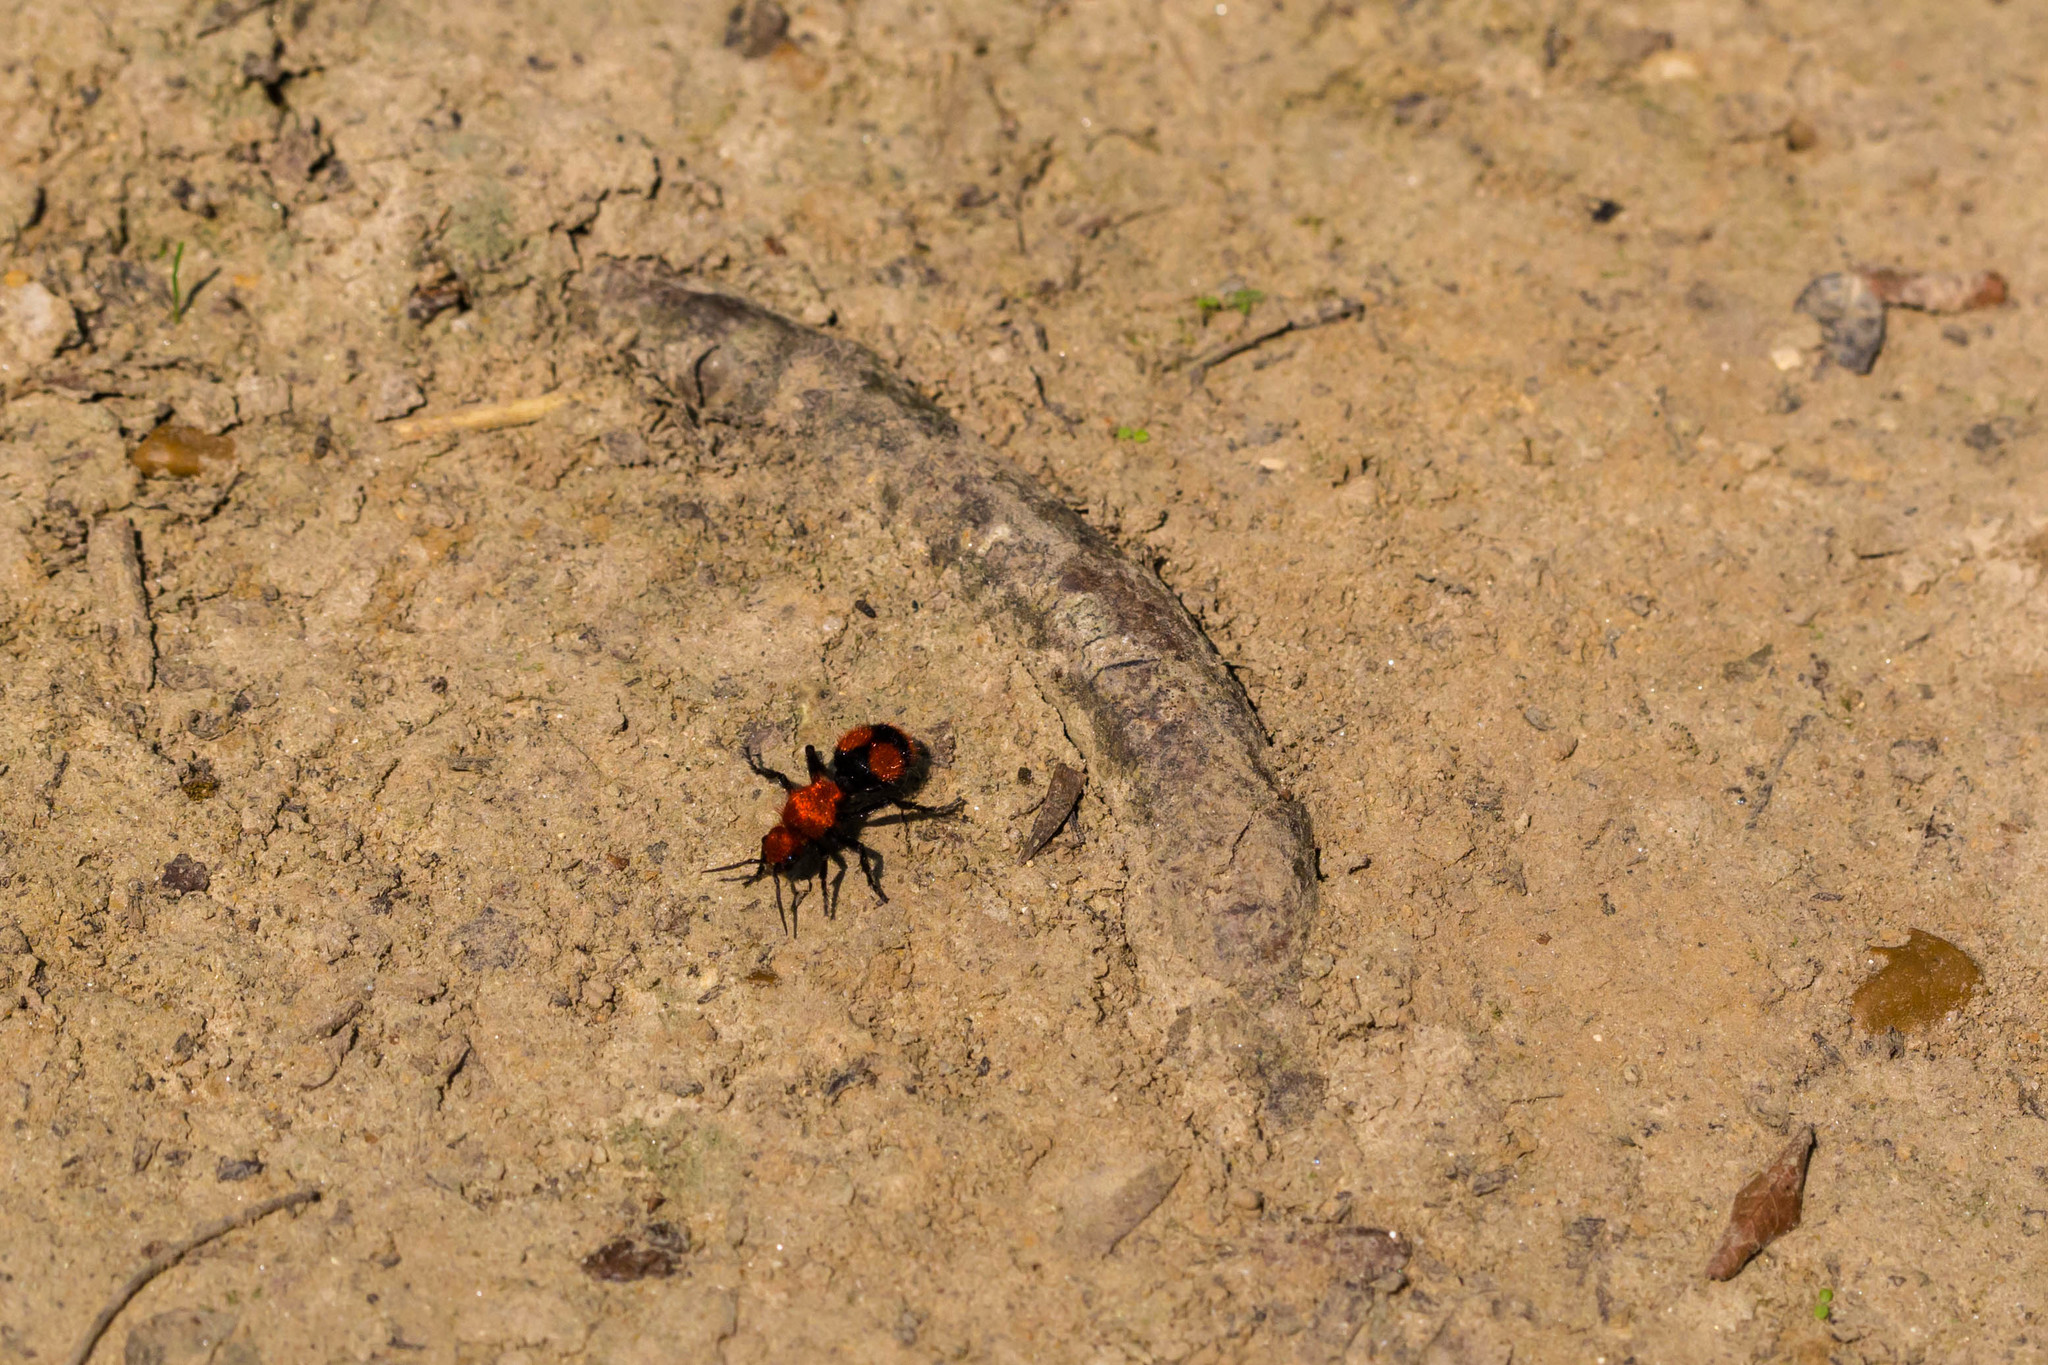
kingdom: Animalia
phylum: Arthropoda
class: Insecta
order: Hymenoptera
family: Mutillidae
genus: Dasymutilla
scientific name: Dasymutilla occidentalis
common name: Common eastern velvet ant
